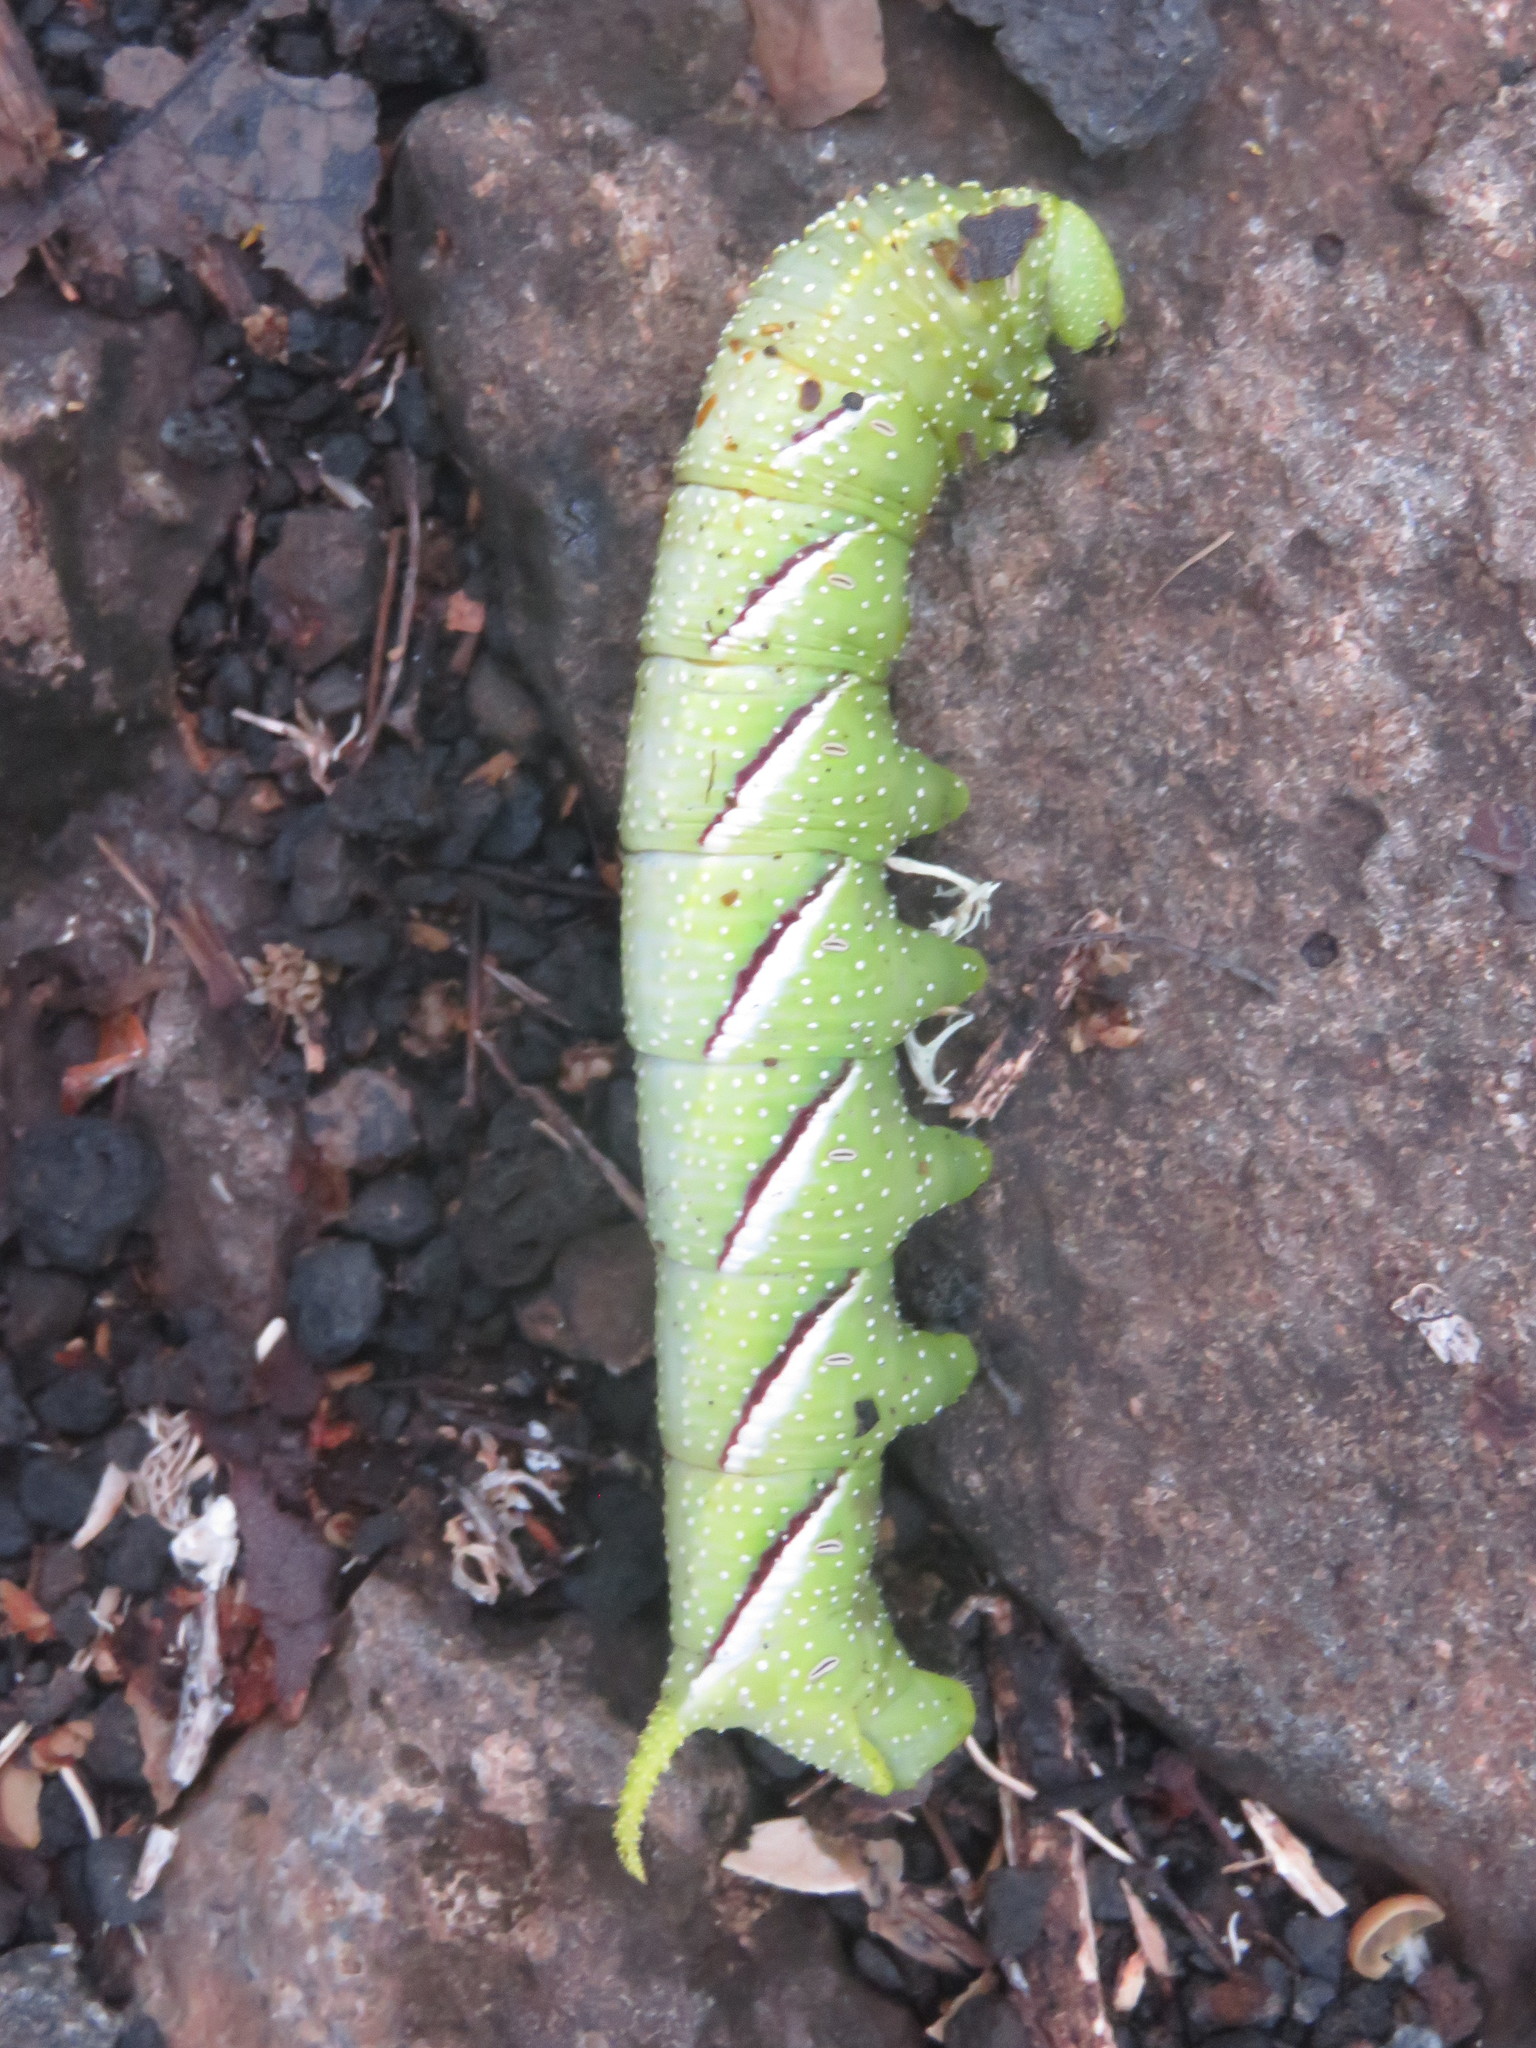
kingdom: Animalia
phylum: Arthropoda
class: Insecta
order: Lepidoptera
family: Sphingidae
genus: Manduca
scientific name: Manduca rustica
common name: Rustic sphinx
